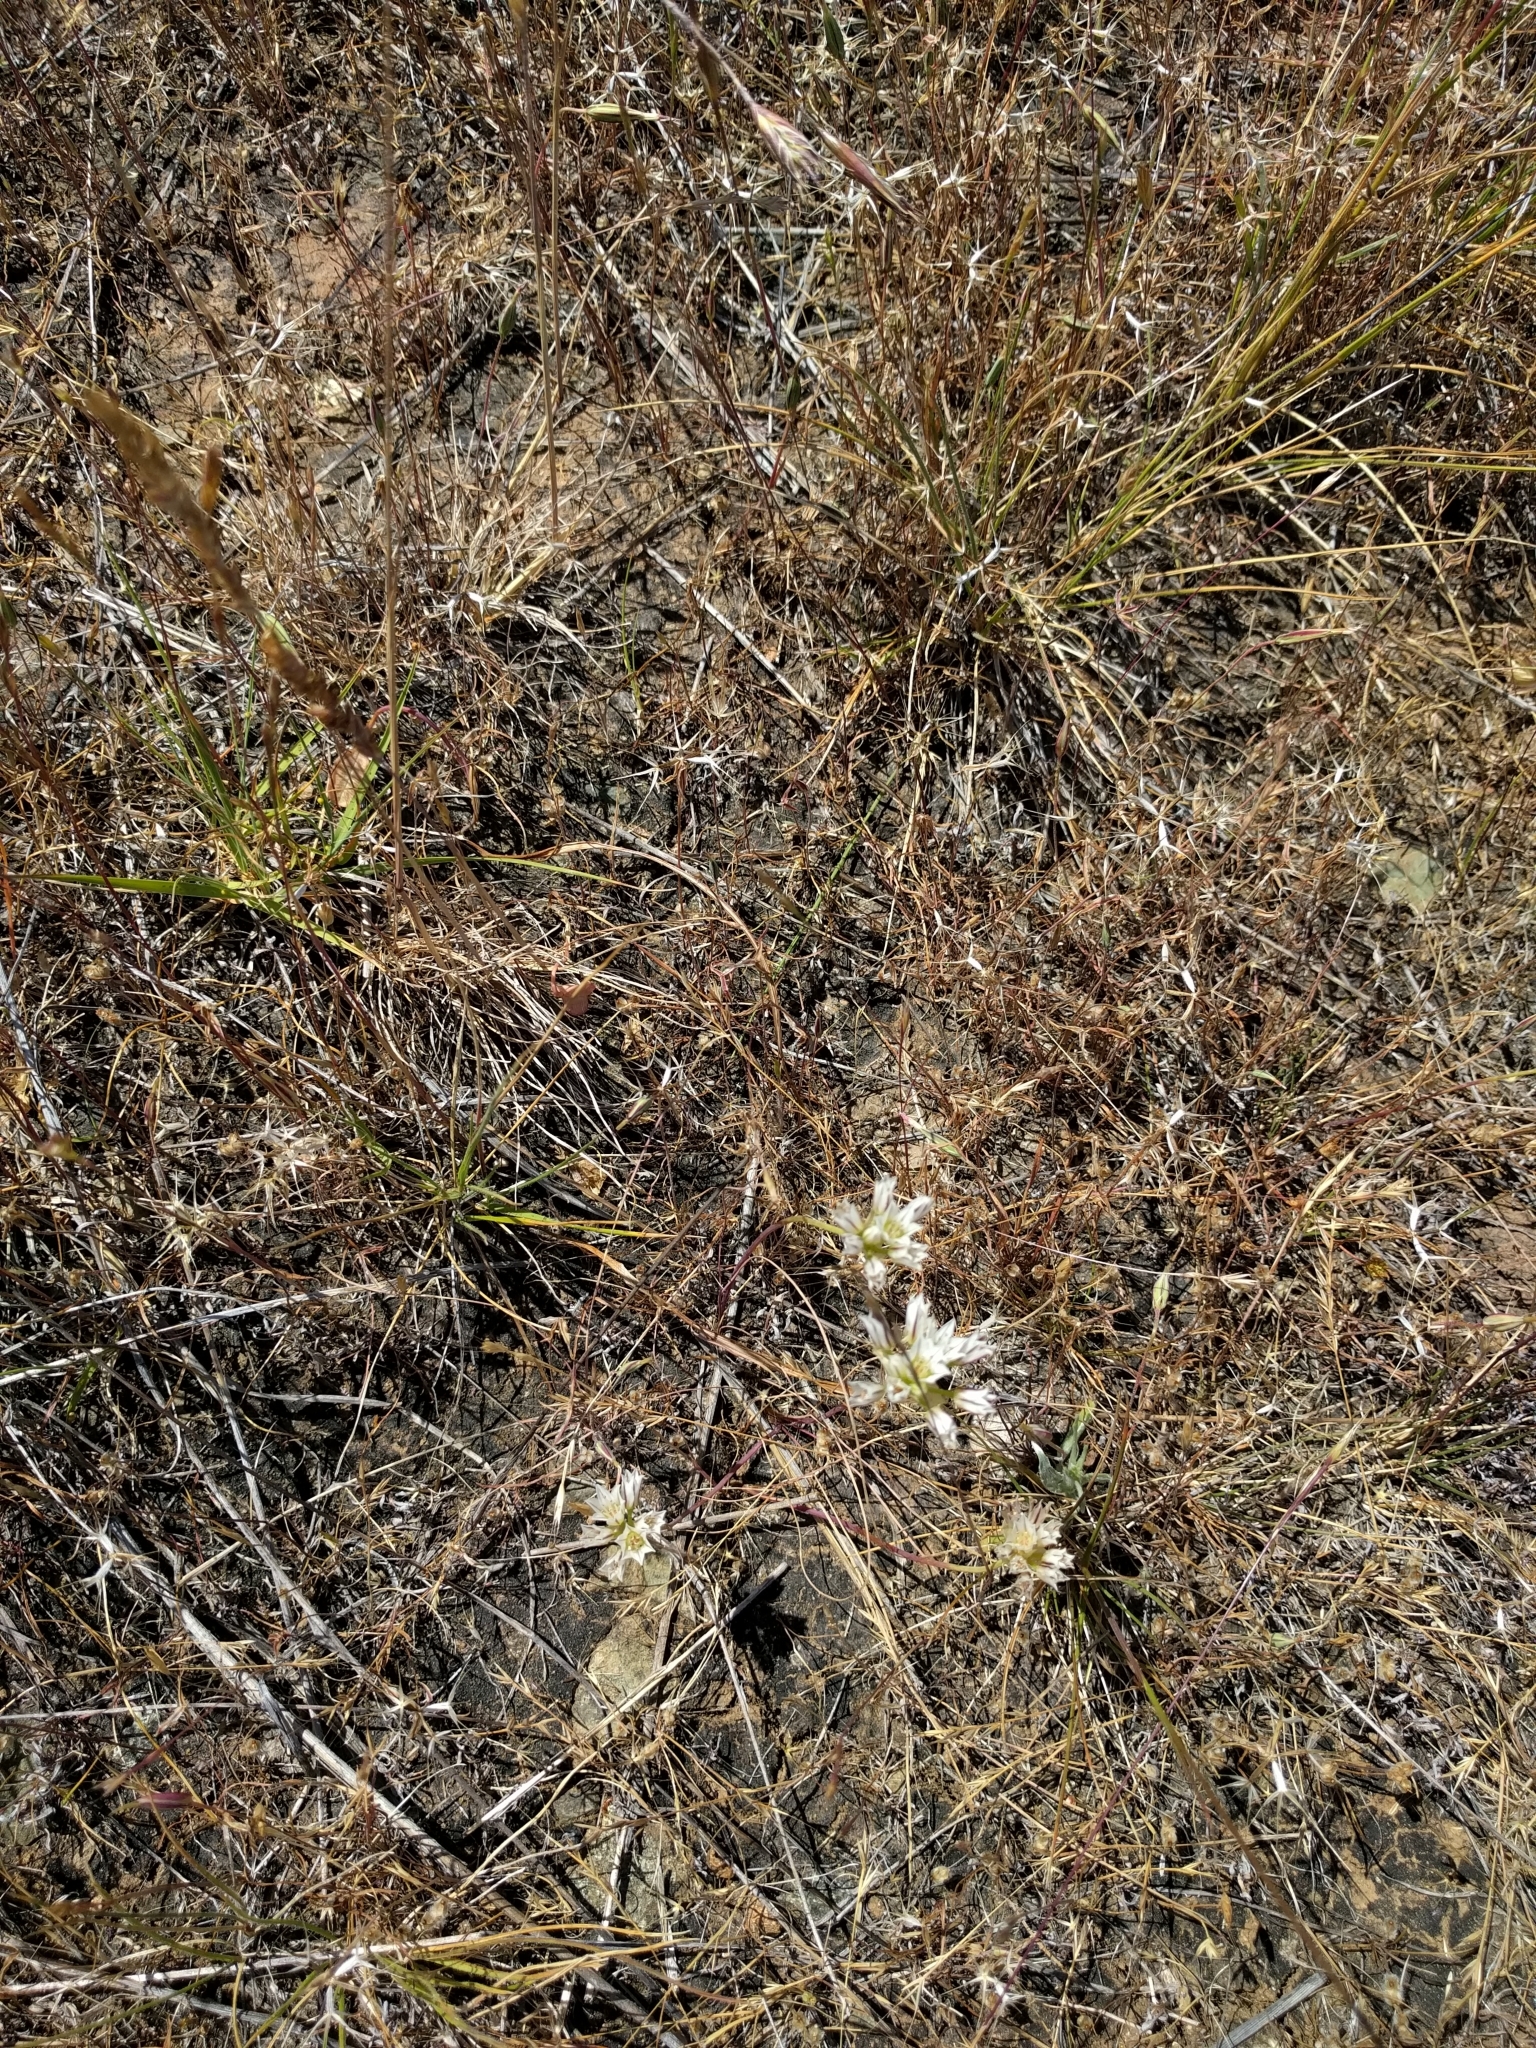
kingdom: Plantae
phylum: Tracheophyta
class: Liliopsida
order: Asparagales
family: Amaryllidaceae
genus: Allium
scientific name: Allium lacunosum
